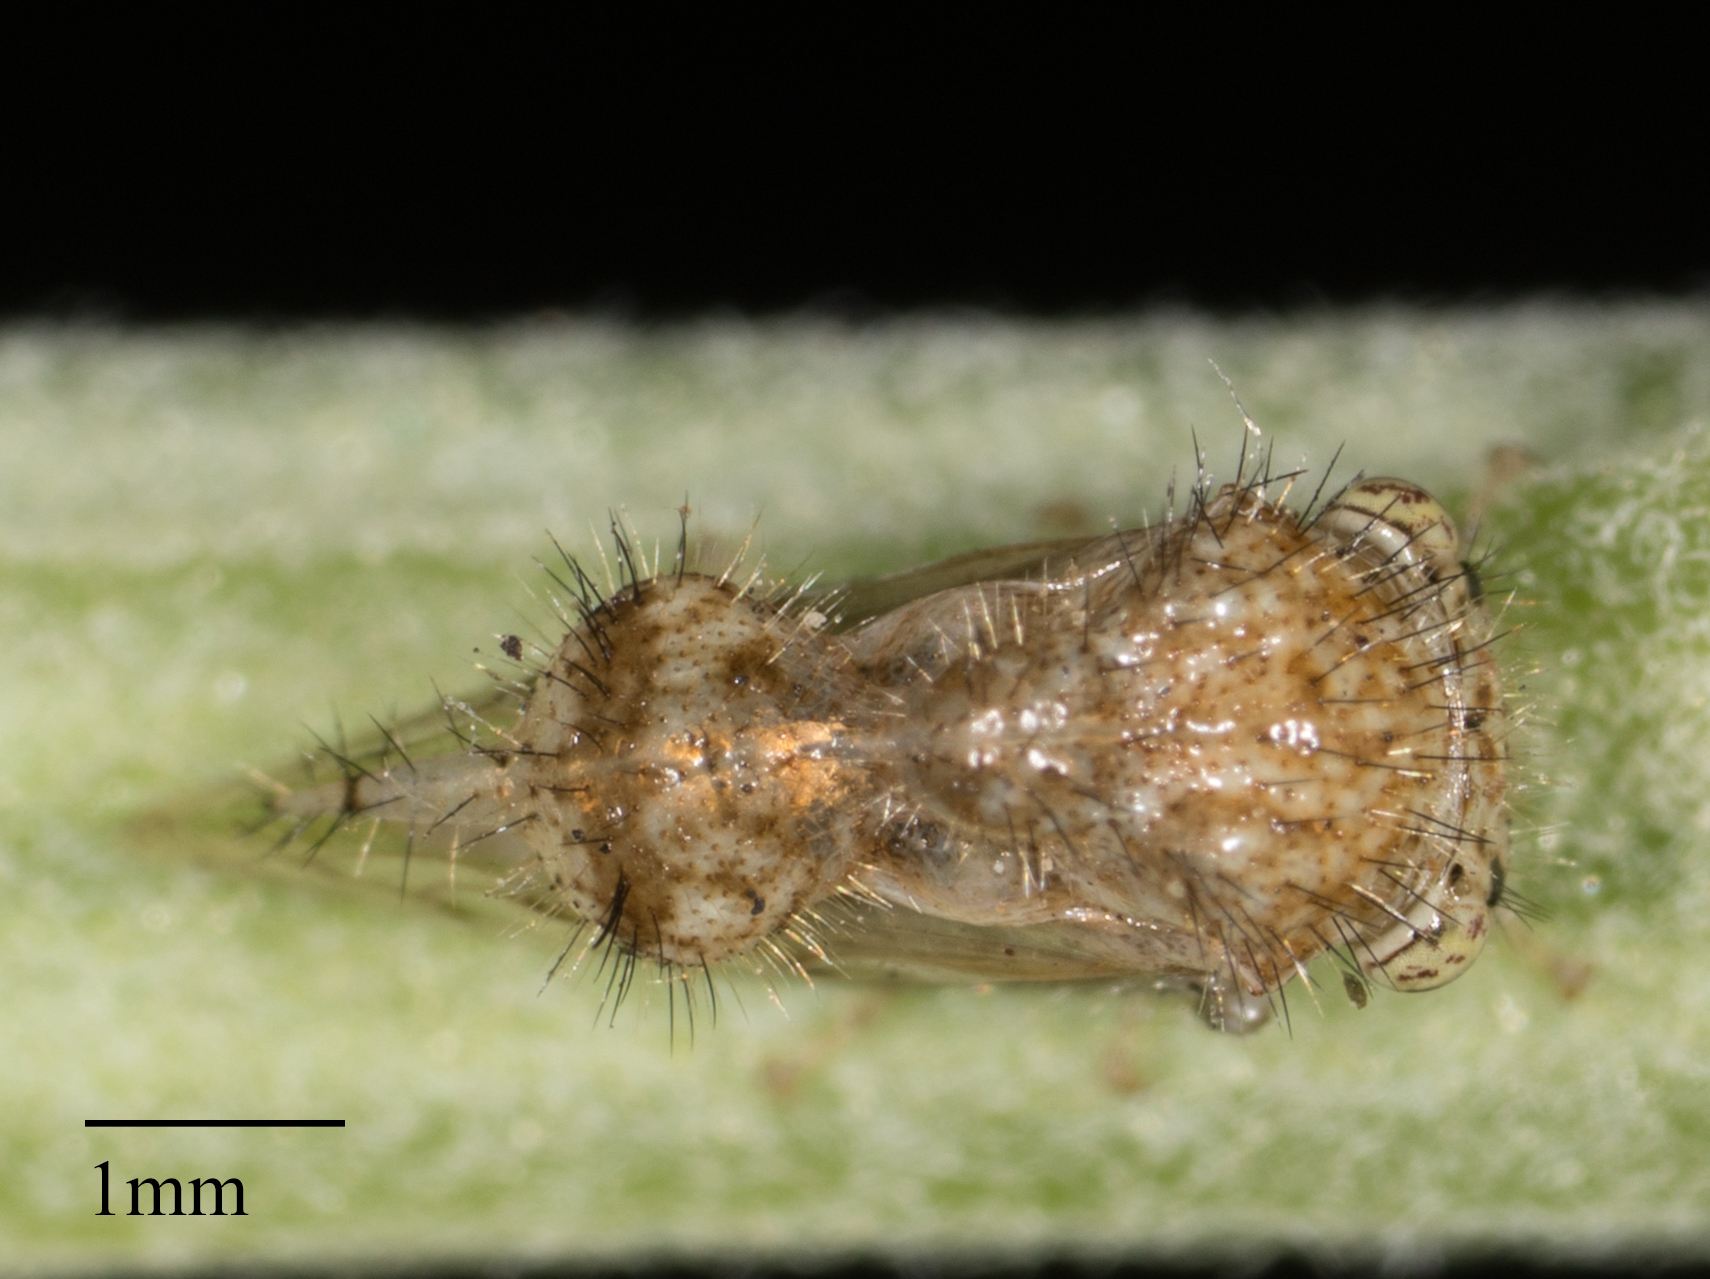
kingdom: Animalia
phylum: Arthropoda
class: Insecta
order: Hemiptera
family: Membracidae
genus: Parantonae
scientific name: Parantonae hispida
